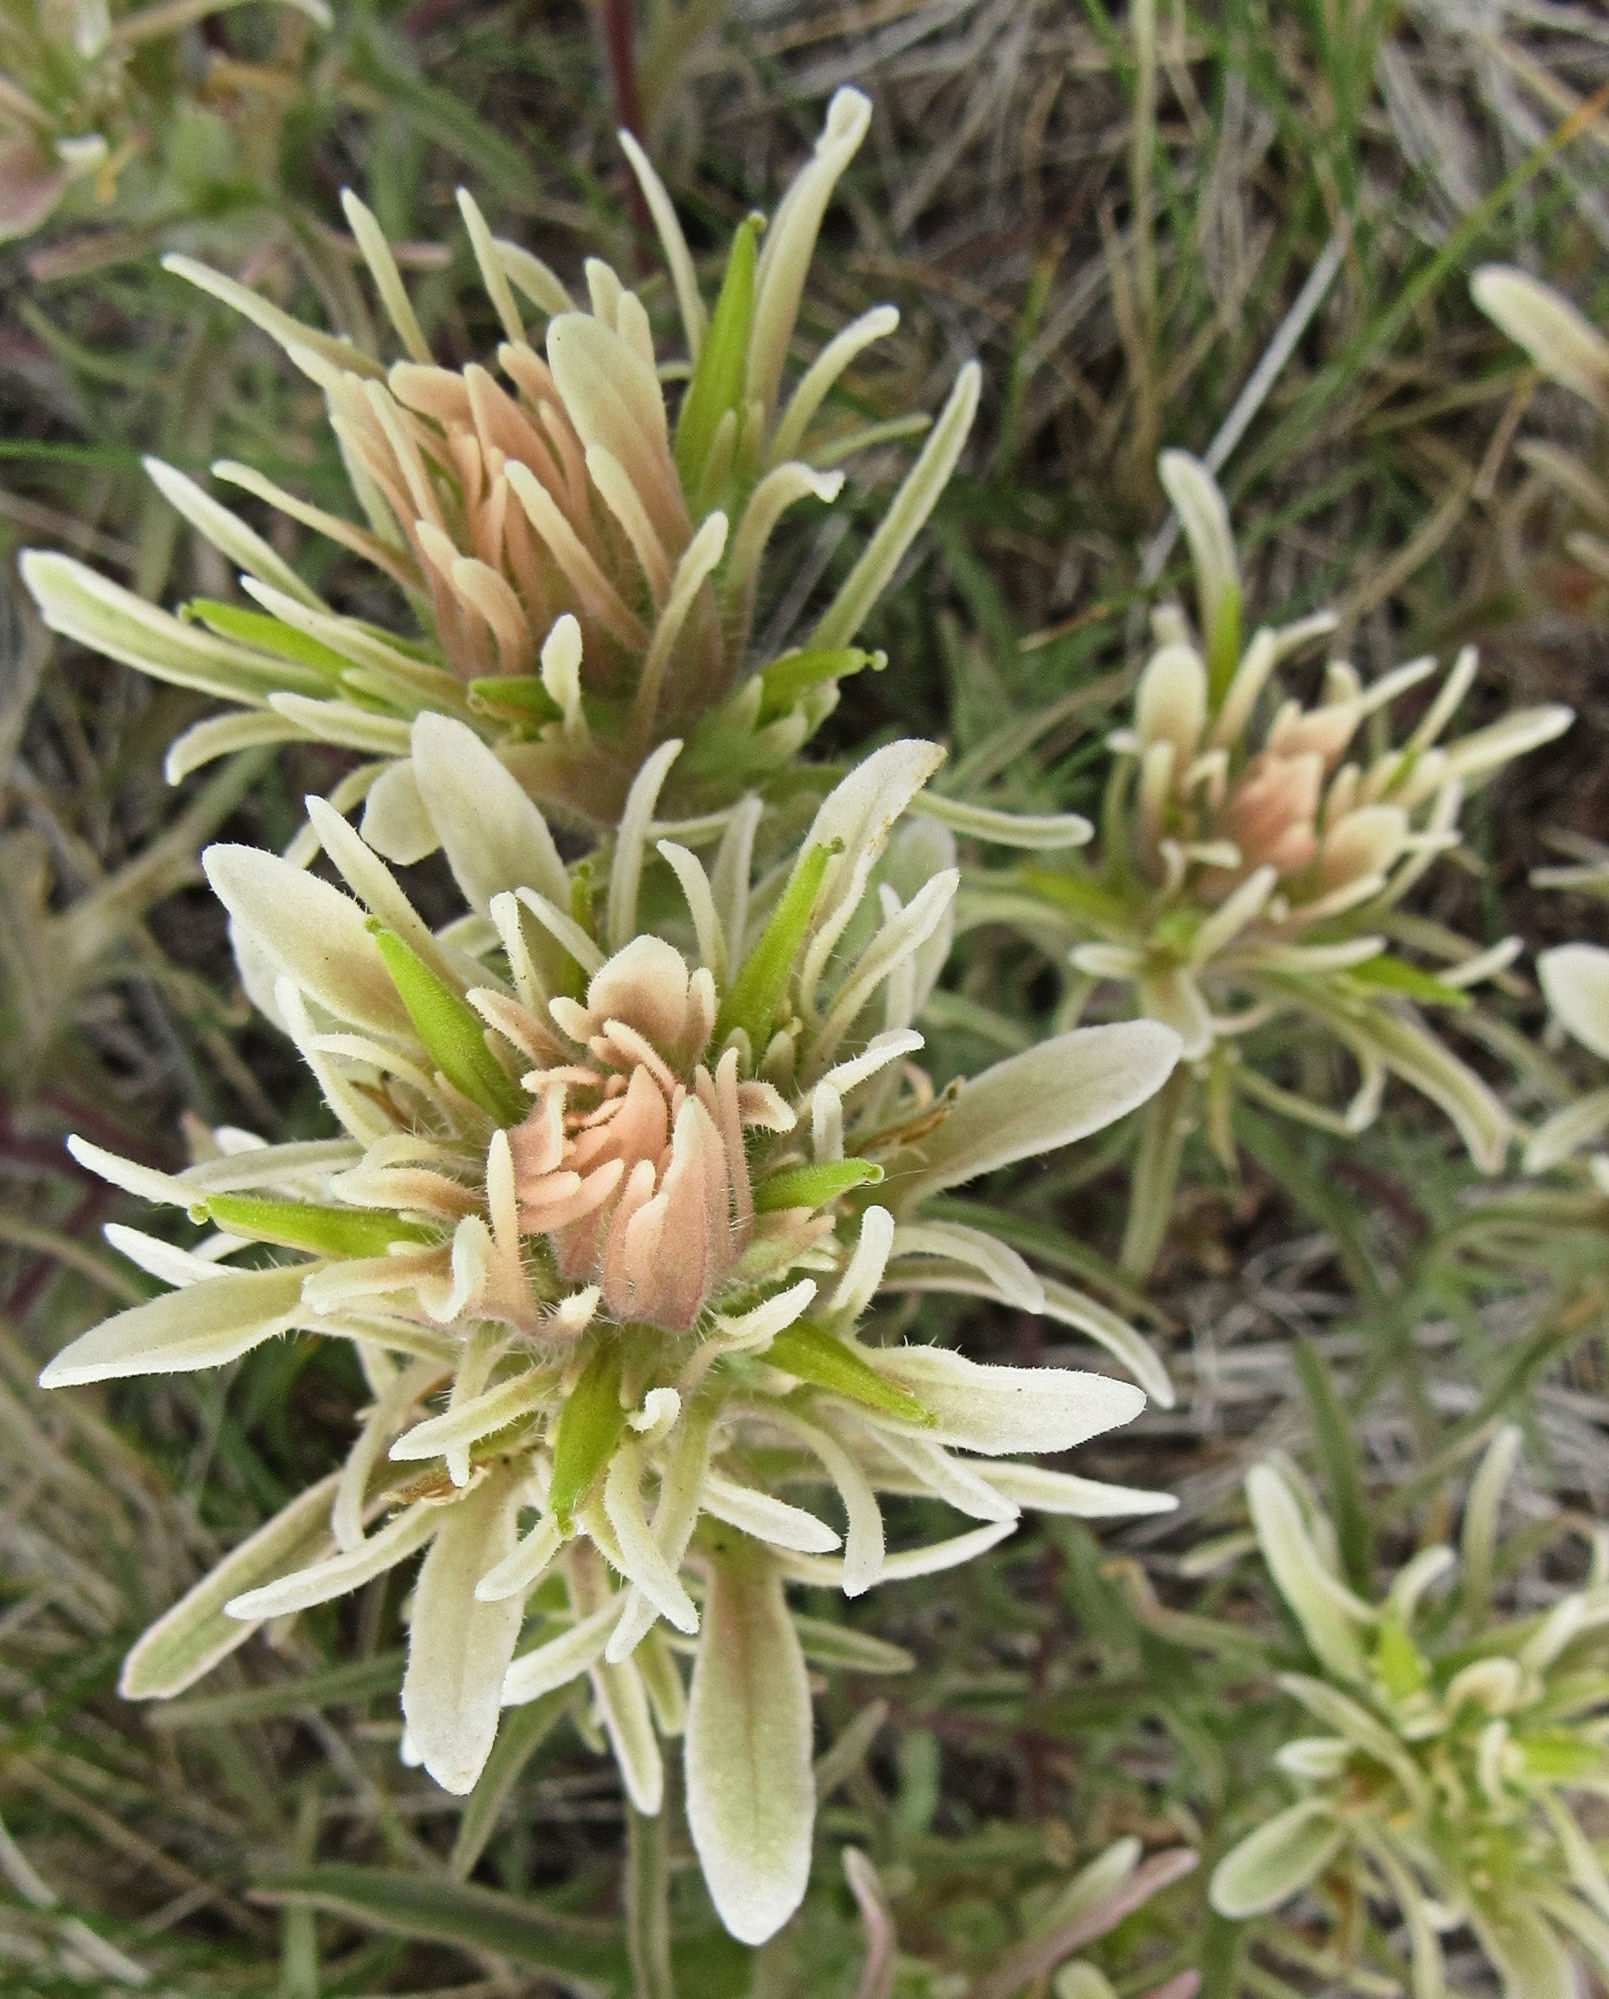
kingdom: Plantae
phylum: Tracheophyta
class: Magnoliopsida
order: Lamiales
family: Orobanchaceae
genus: Castilleja
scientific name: Castilleja flava
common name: Yellow paintbrush
